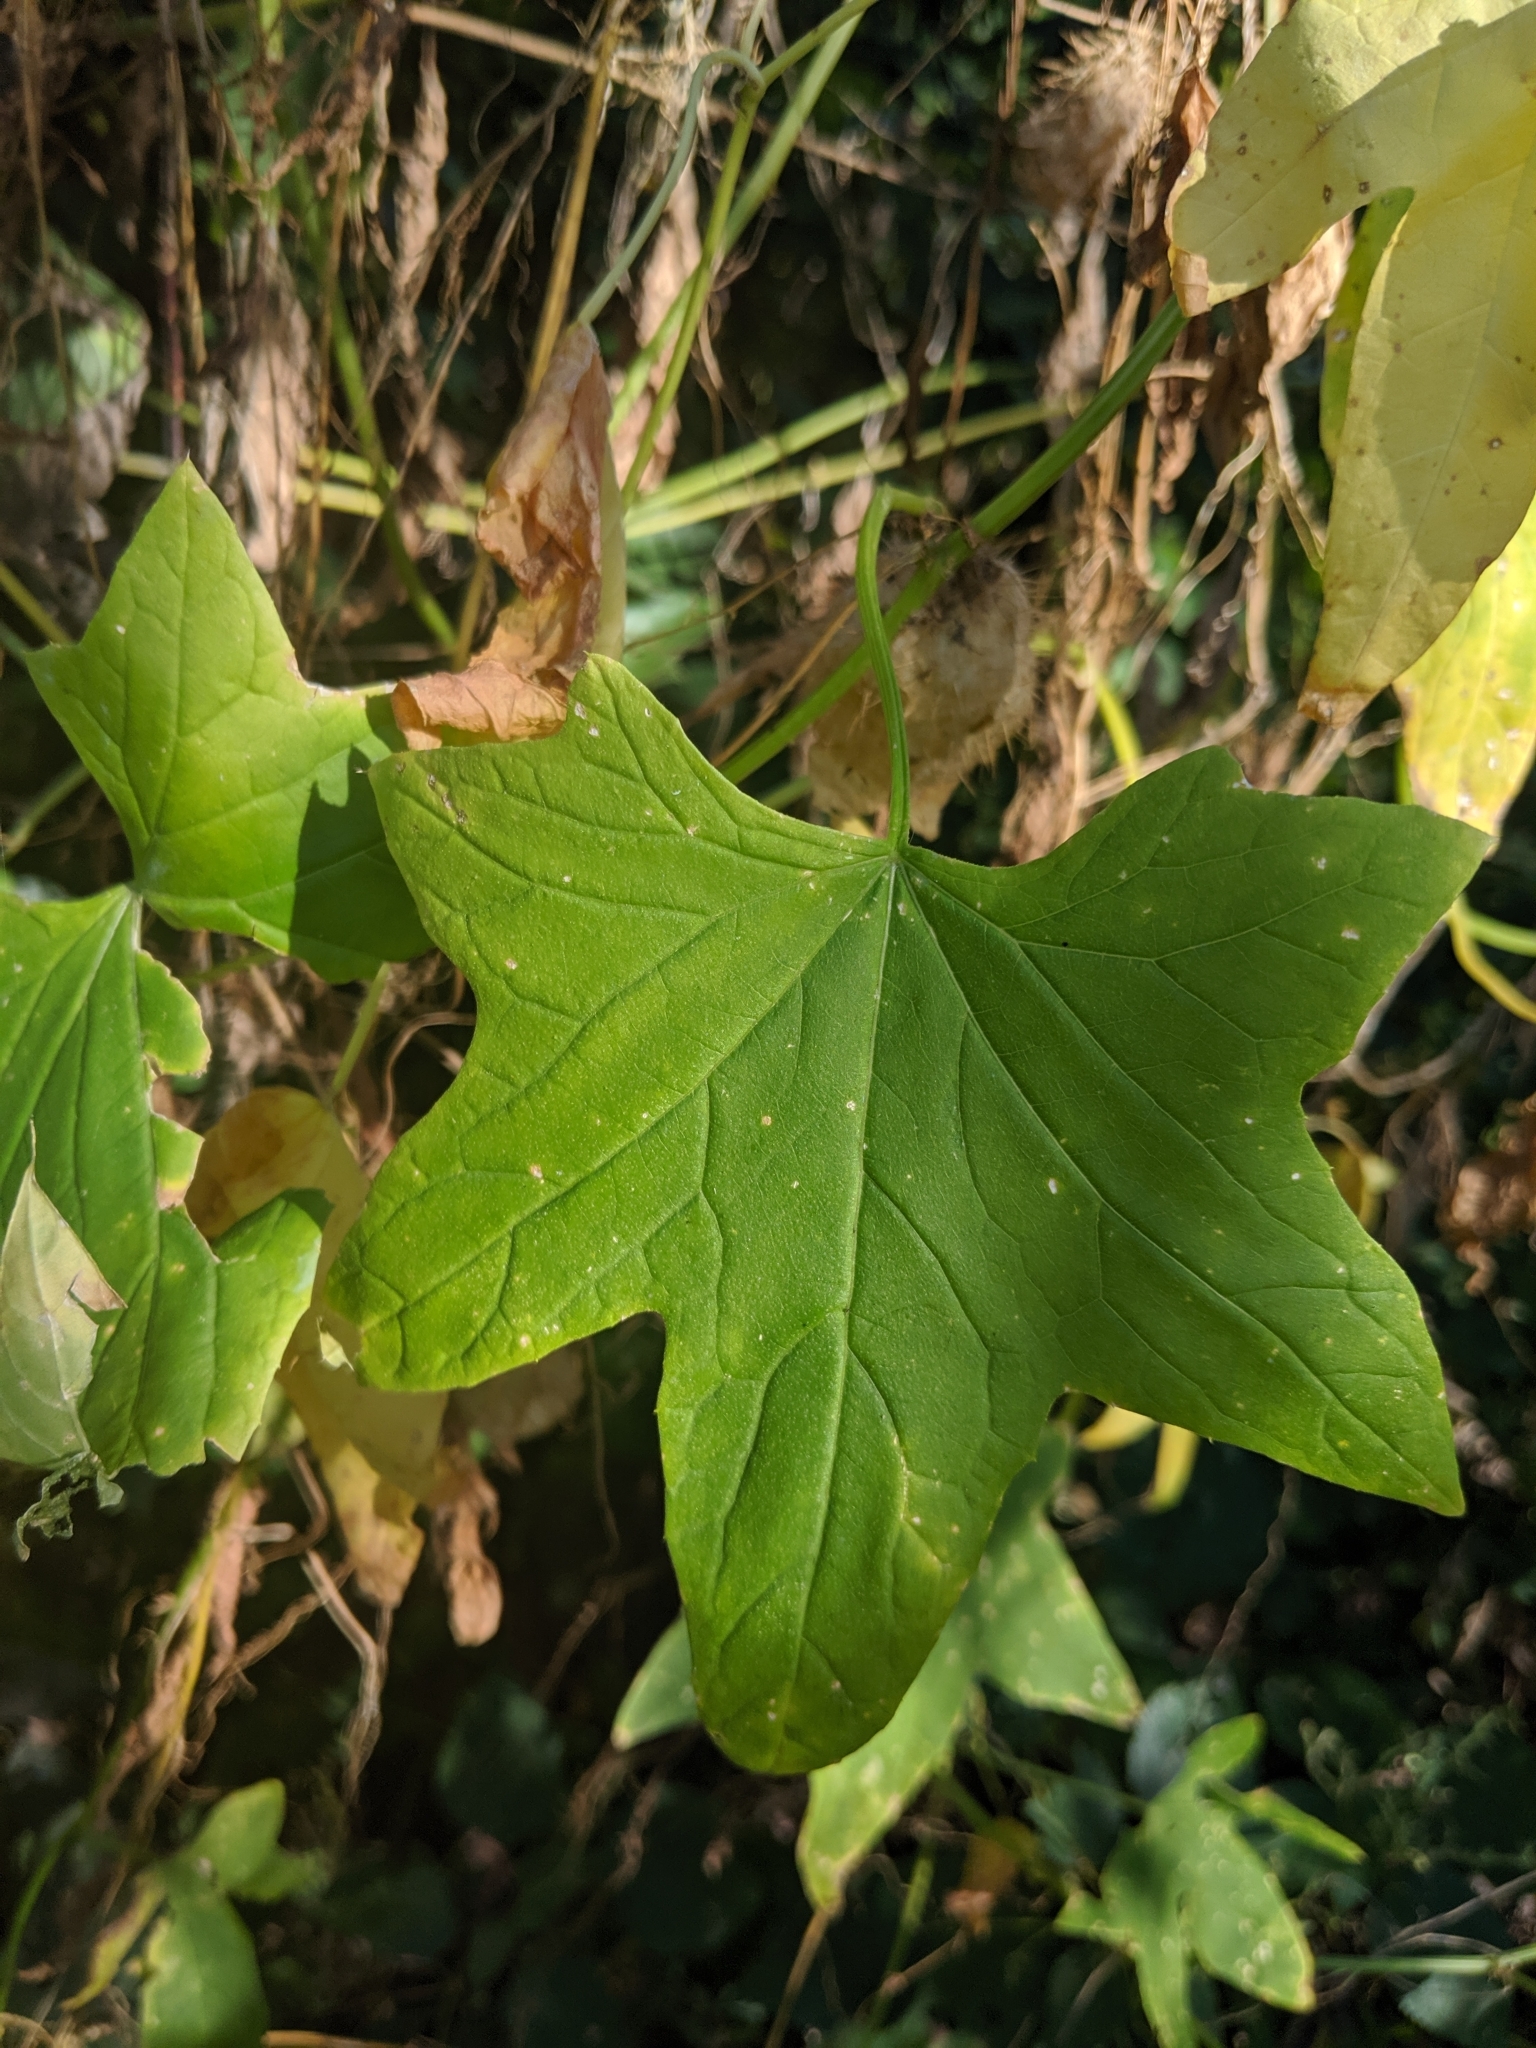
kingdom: Plantae
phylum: Tracheophyta
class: Magnoliopsida
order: Cucurbitales
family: Cucurbitaceae
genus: Echinocystis
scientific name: Echinocystis lobata
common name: Wild cucumber
